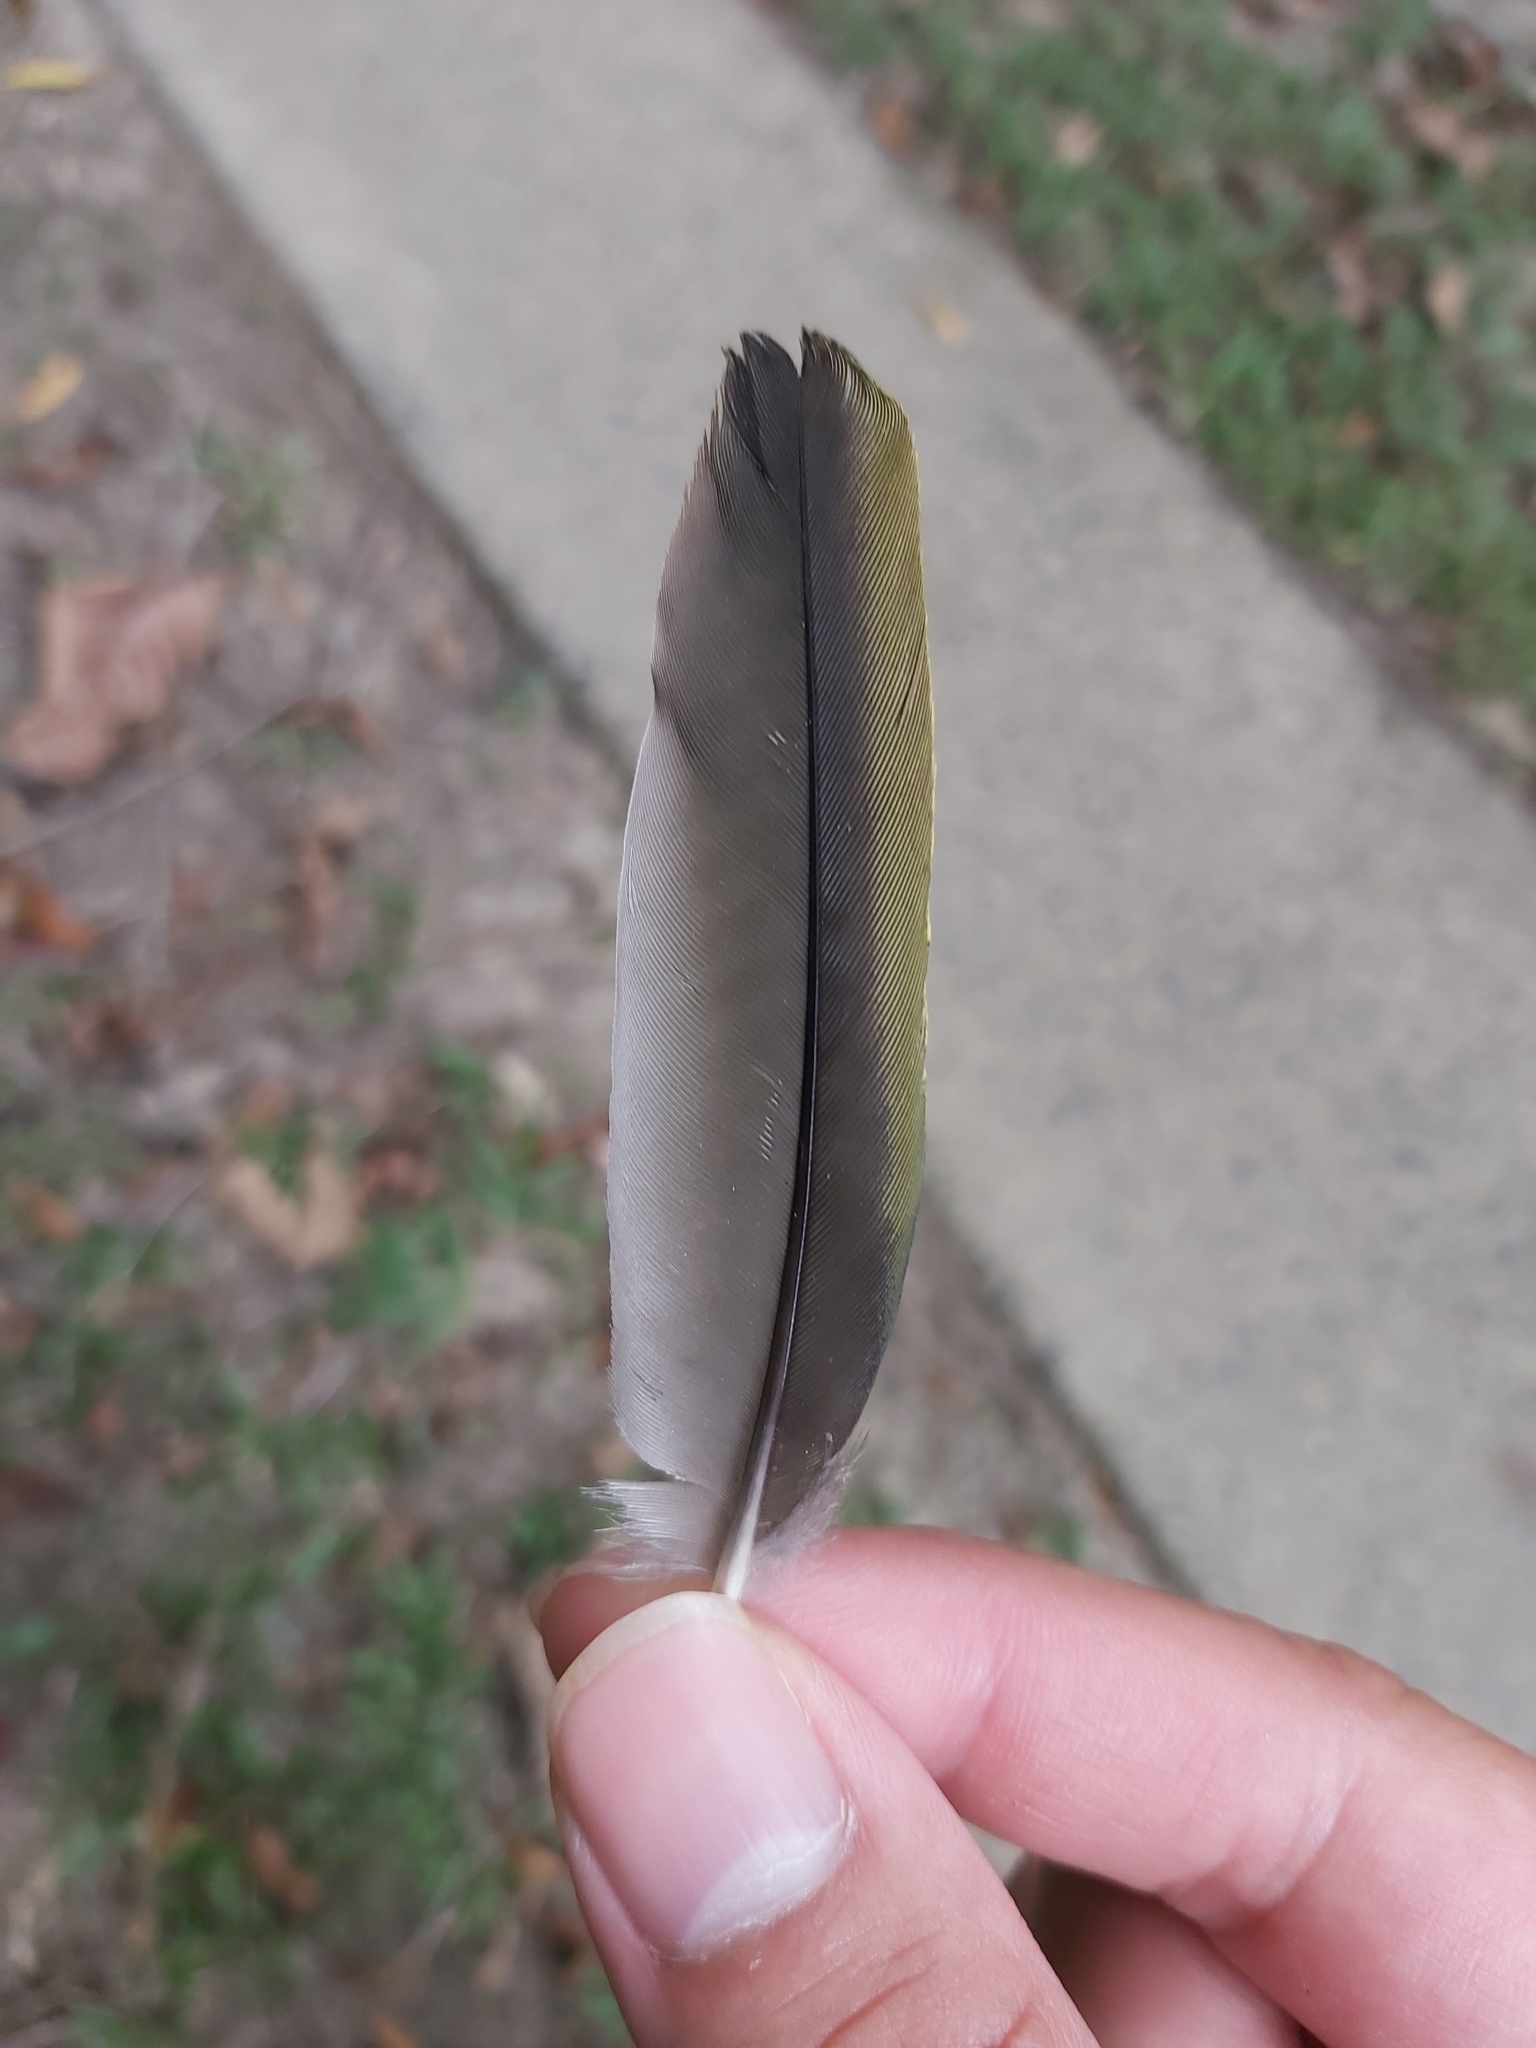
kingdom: Animalia
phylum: Chordata
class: Aves
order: Passeriformes
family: Oriolidae
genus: Sphecotheres
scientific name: Sphecotheres vieilloti
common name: Australasian figbird
